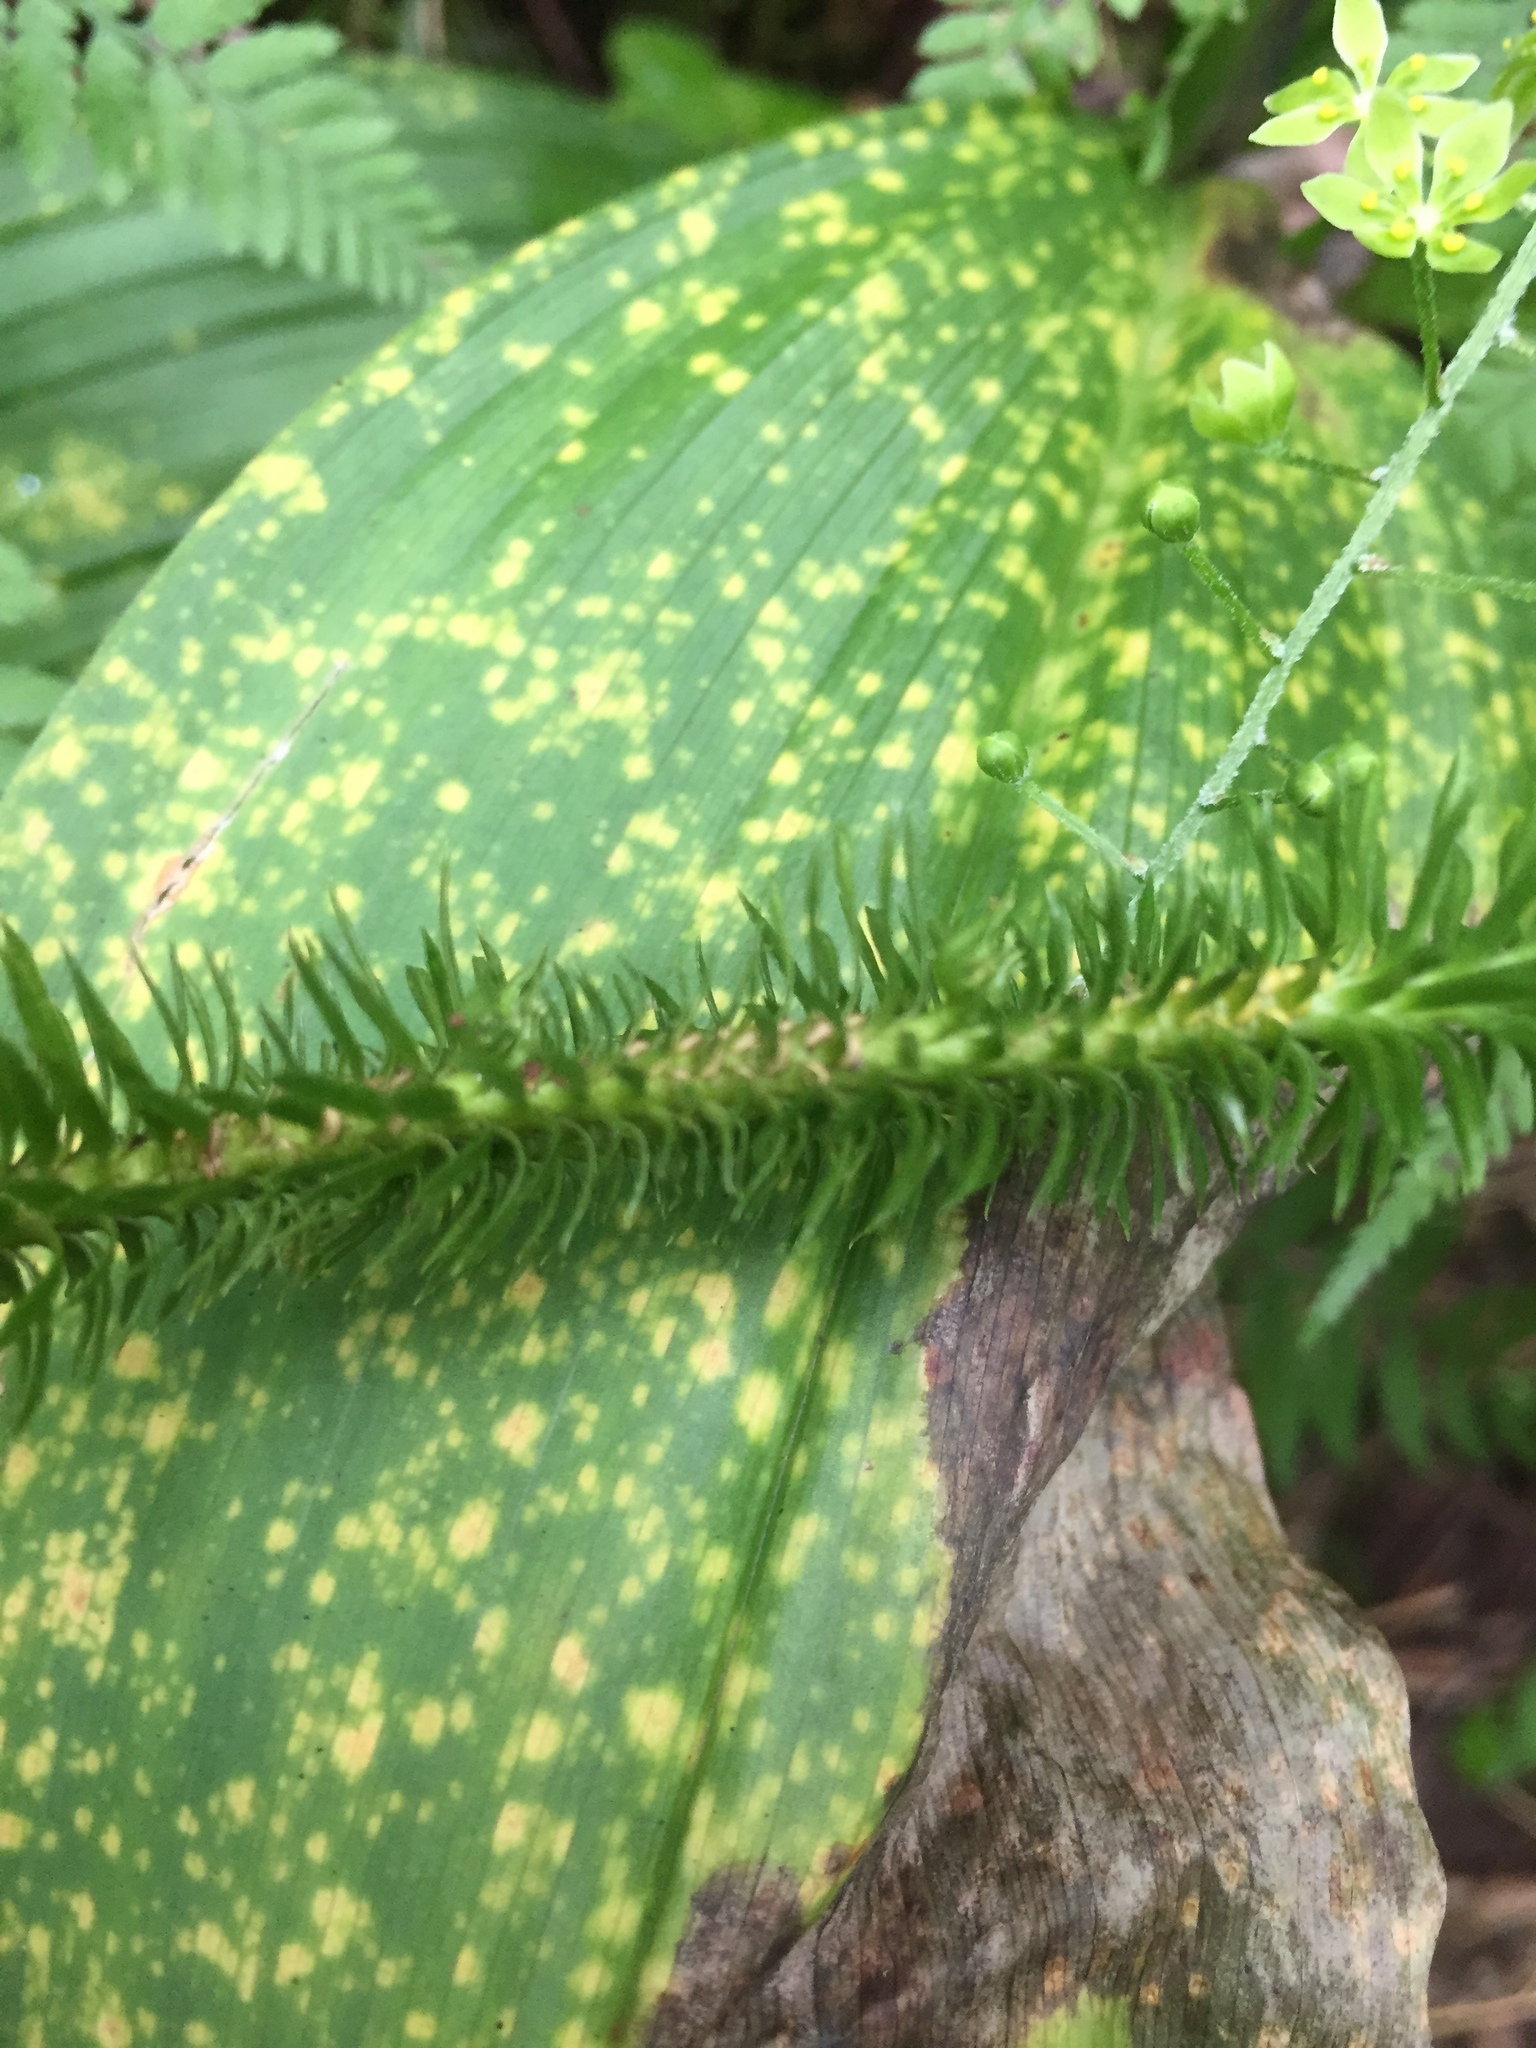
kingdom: Plantae
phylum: Tracheophyta
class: Lycopodiopsida
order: Lycopodiales
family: Lycopodiaceae
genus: Huperzia
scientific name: Huperzia lucidula
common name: Shining clubmoss
